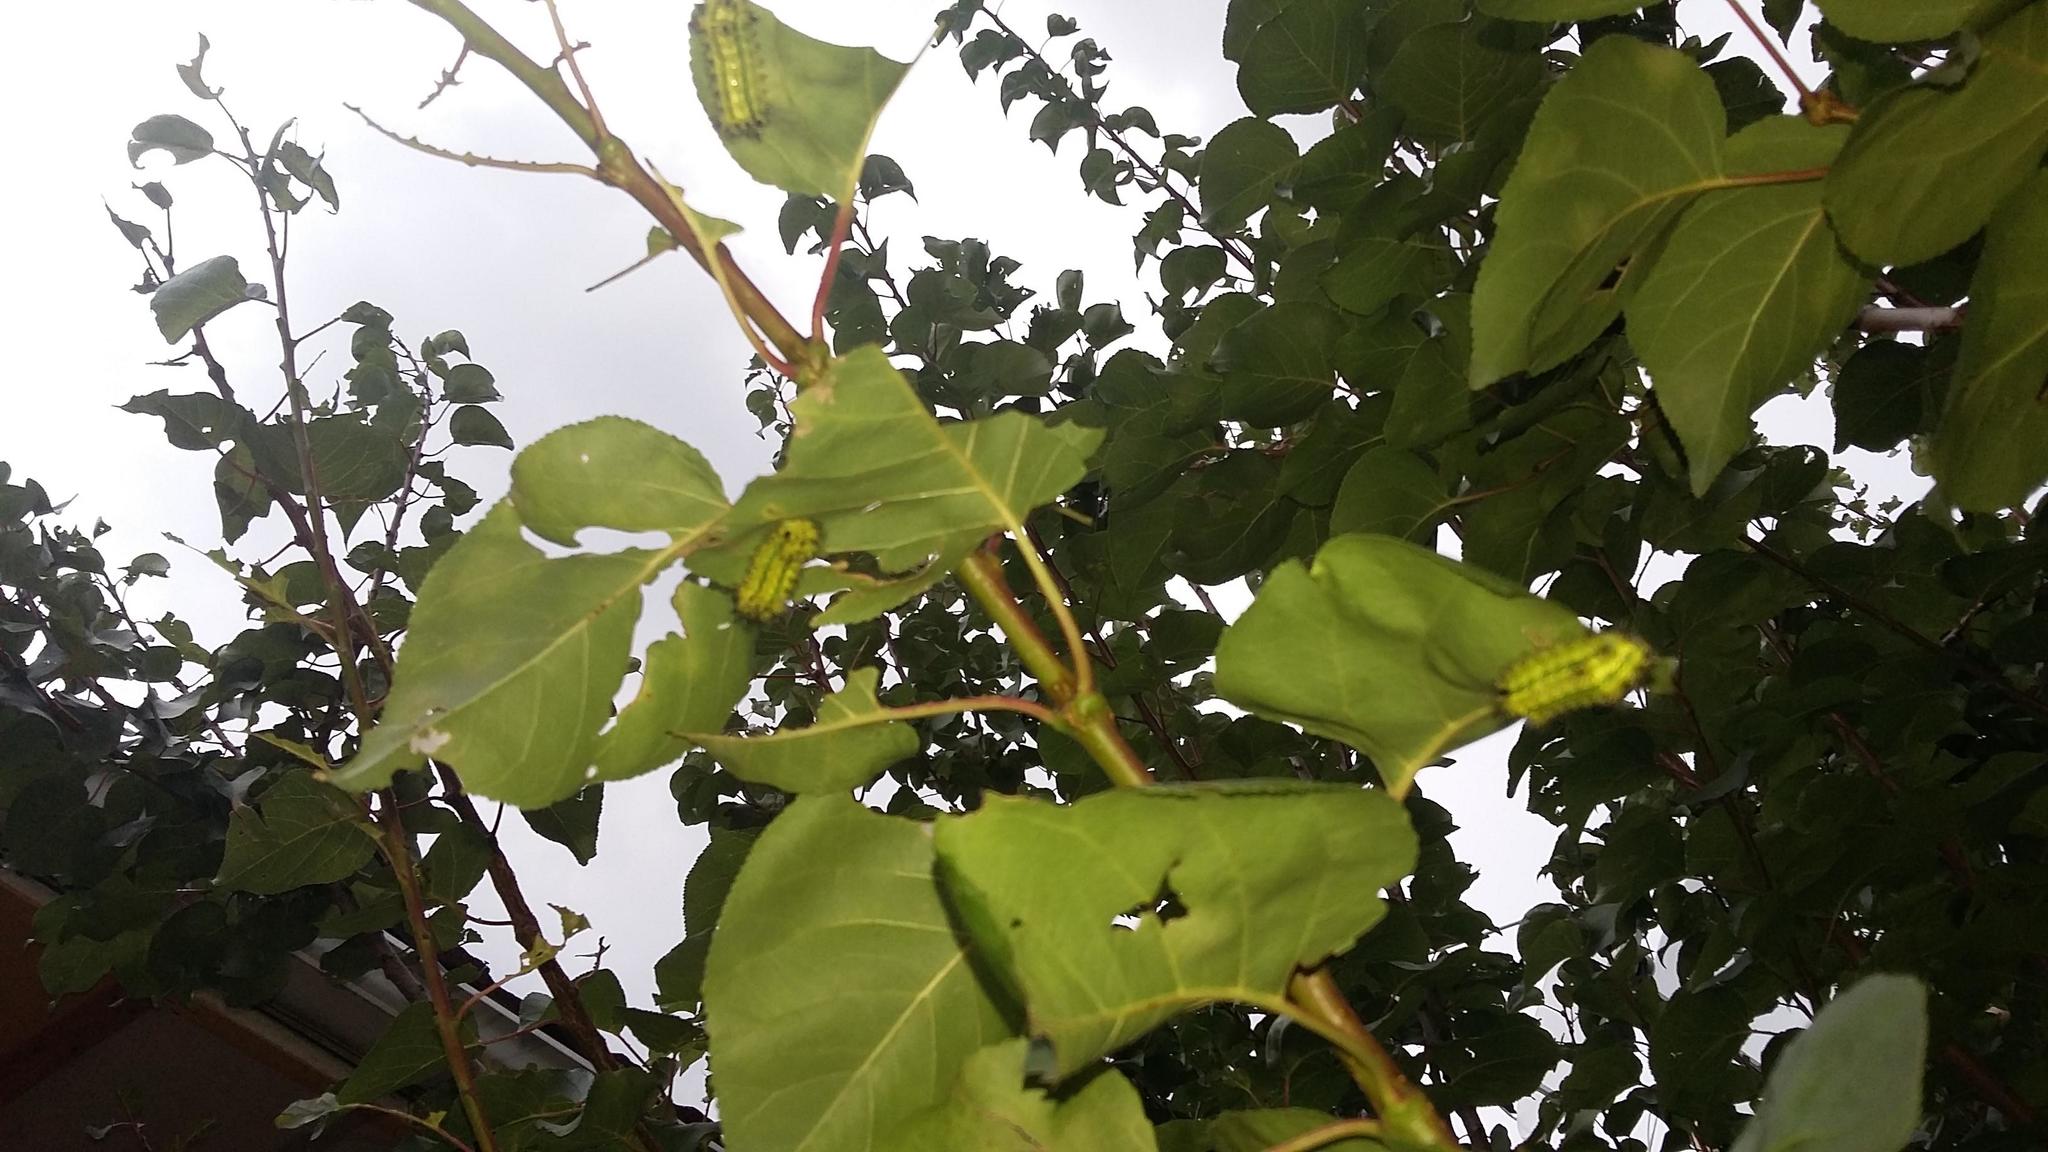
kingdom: Plantae
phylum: Tracheophyta
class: Magnoliopsida
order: Rosales
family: Rosaceae
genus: Prunus
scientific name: Prunus armeniaca
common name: Apricot
